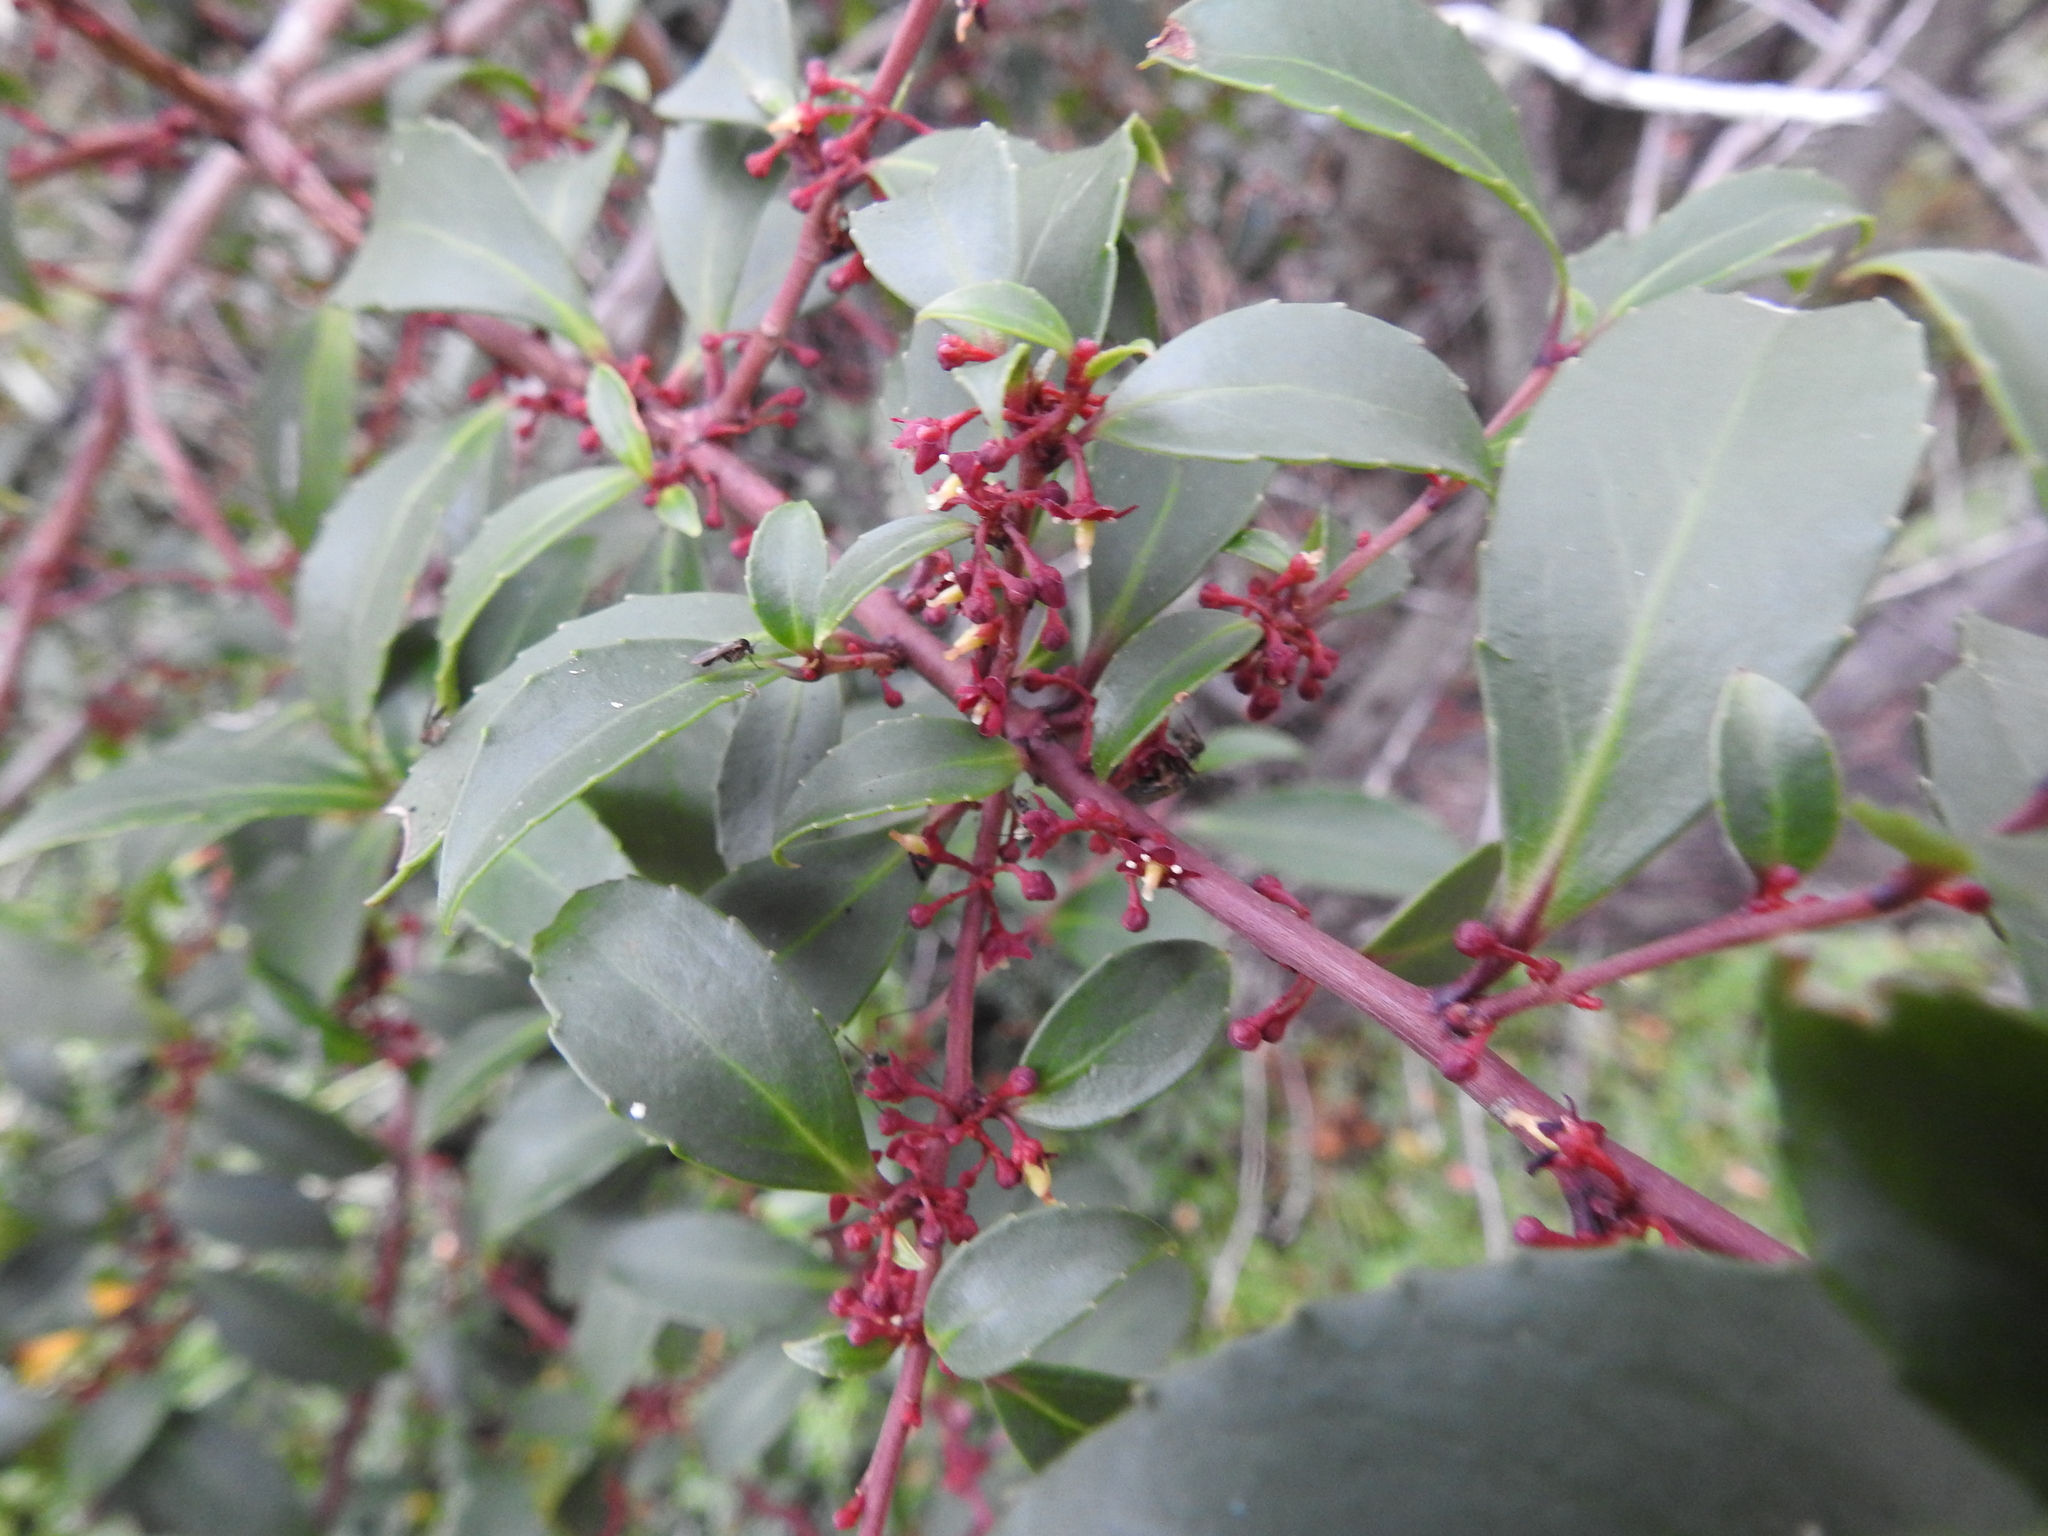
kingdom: Plantae
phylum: Tracheophyta
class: Magnoliopsida
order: Celastrales
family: Celastraceae
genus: Maytenus
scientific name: Maytenus magellanica
